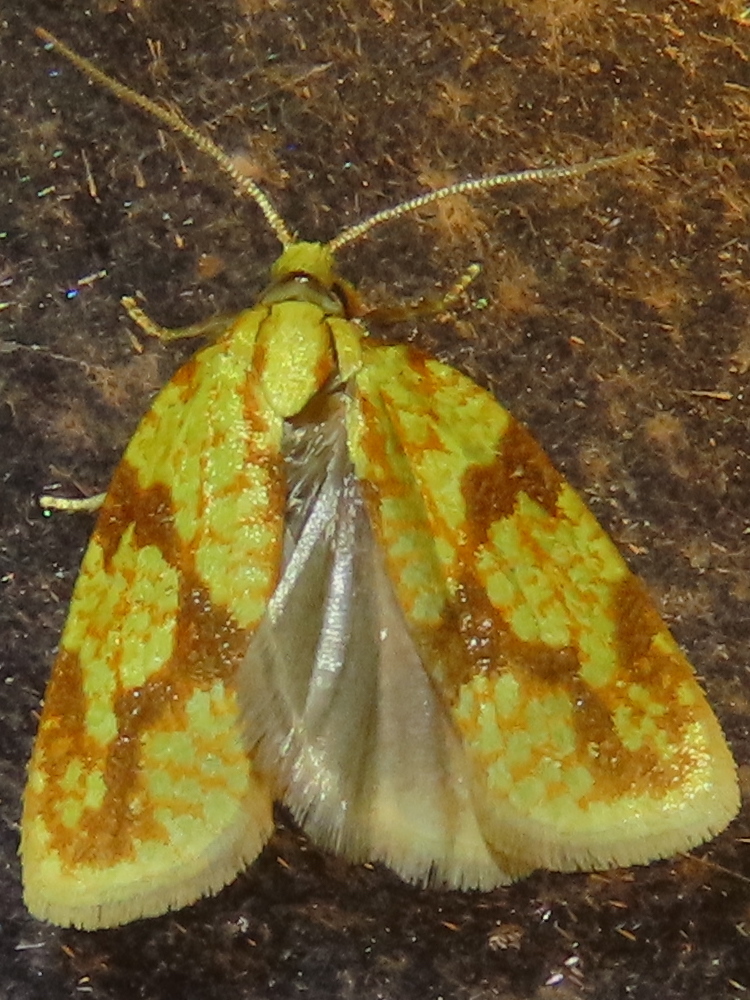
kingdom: Animalia
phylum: Arthropoda
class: Insecta
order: Lepidoptera
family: Tortricidae
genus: Sparganothis
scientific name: Sparganothis sulfureana
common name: Sparganothis fruitworm moth
